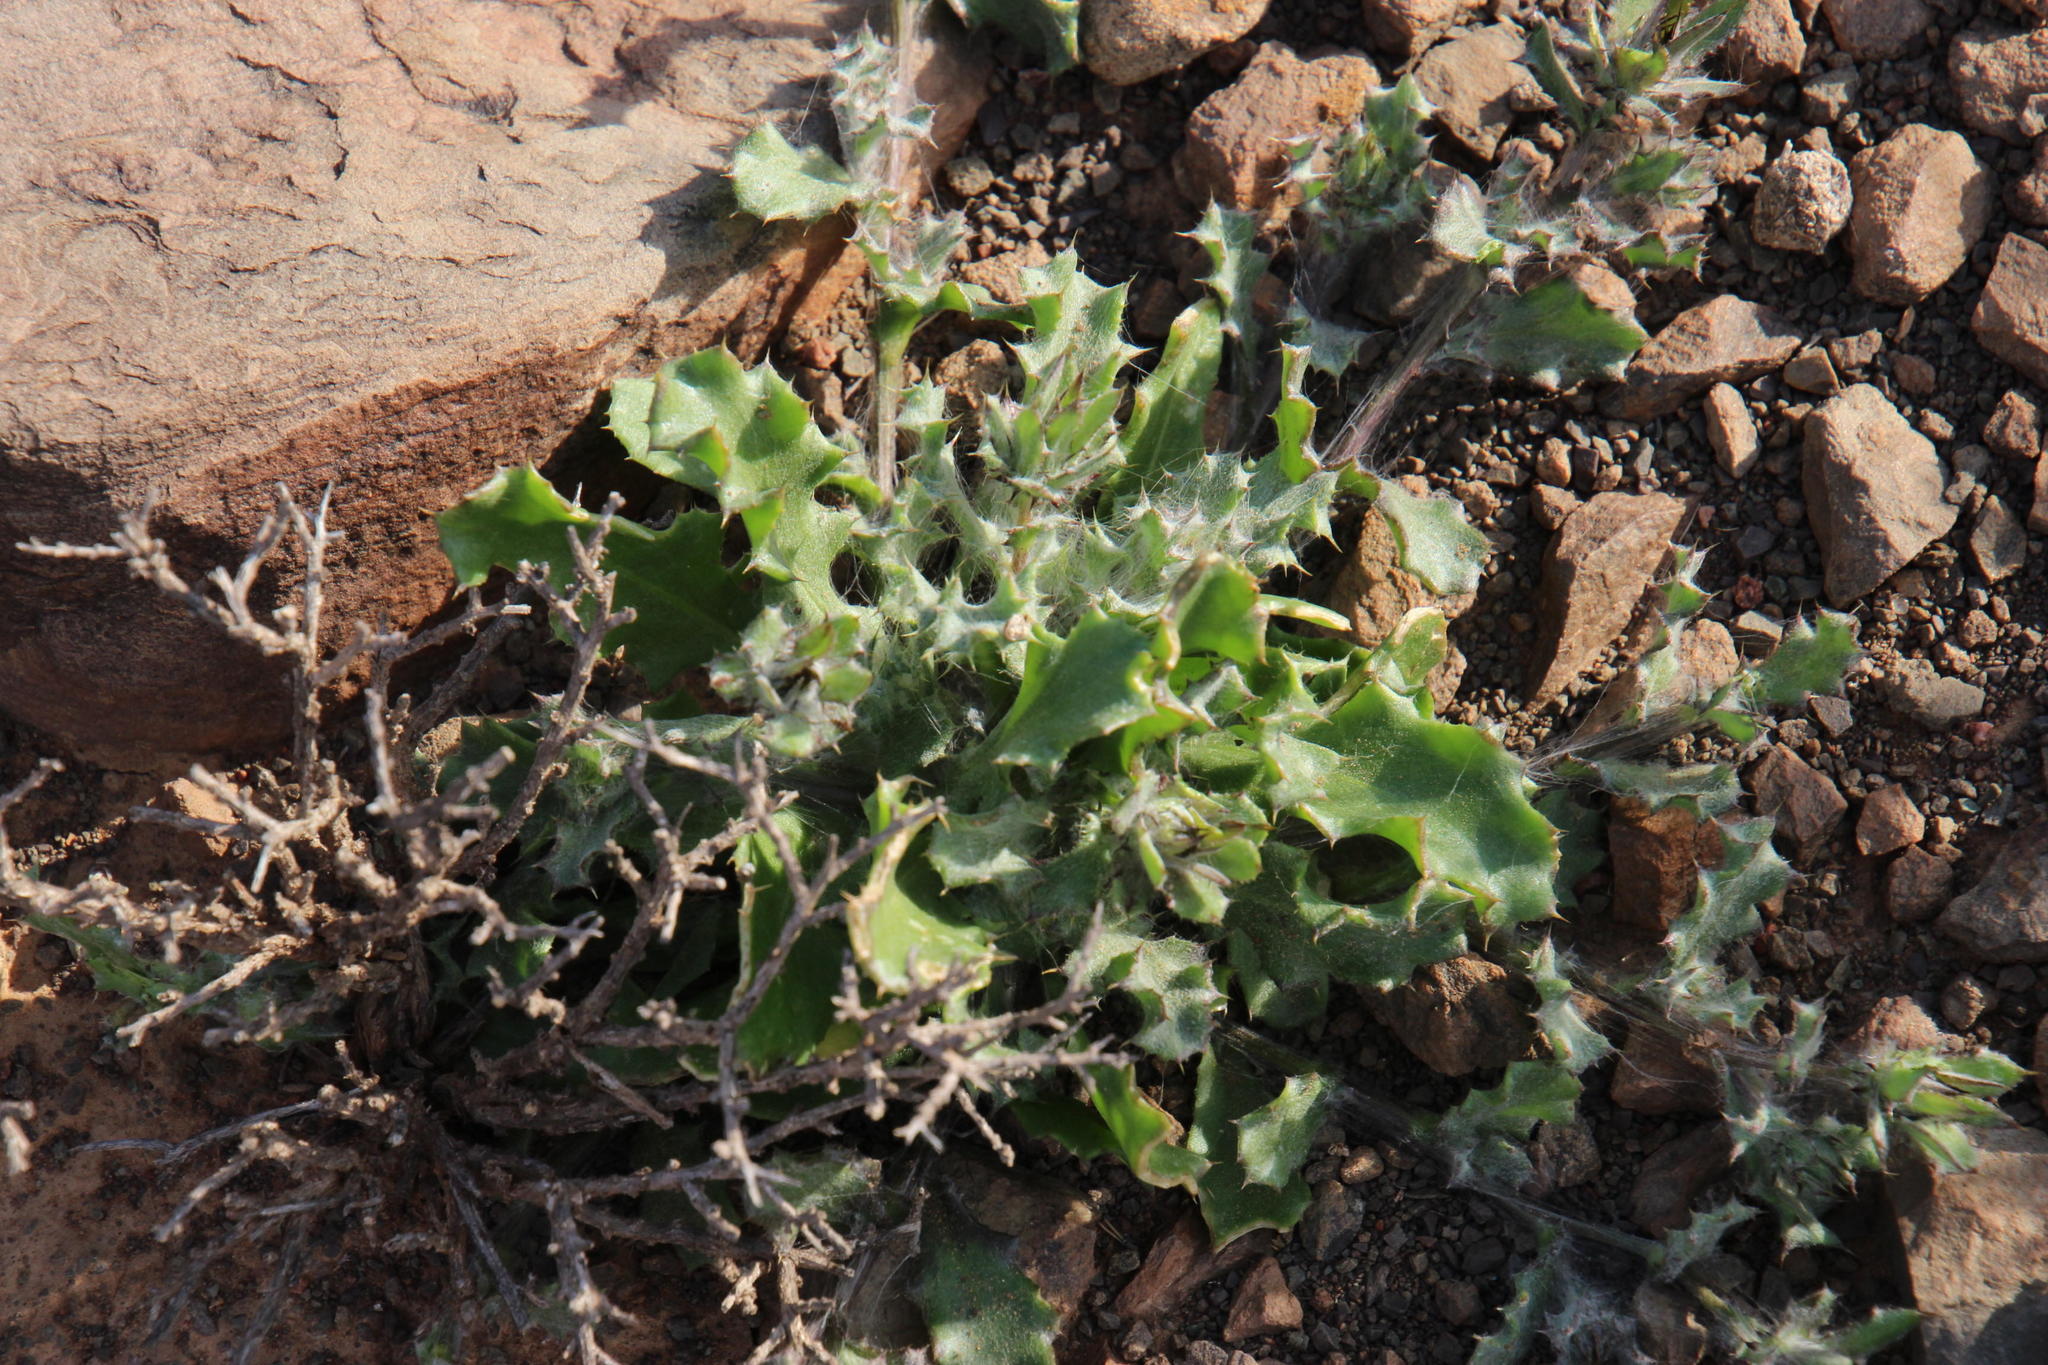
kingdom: Plantae
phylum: Tracheophyta
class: Magnoliopsida
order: Asterales
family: Asteraceae
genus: Cuspidia
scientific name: Cuspidia cernua
